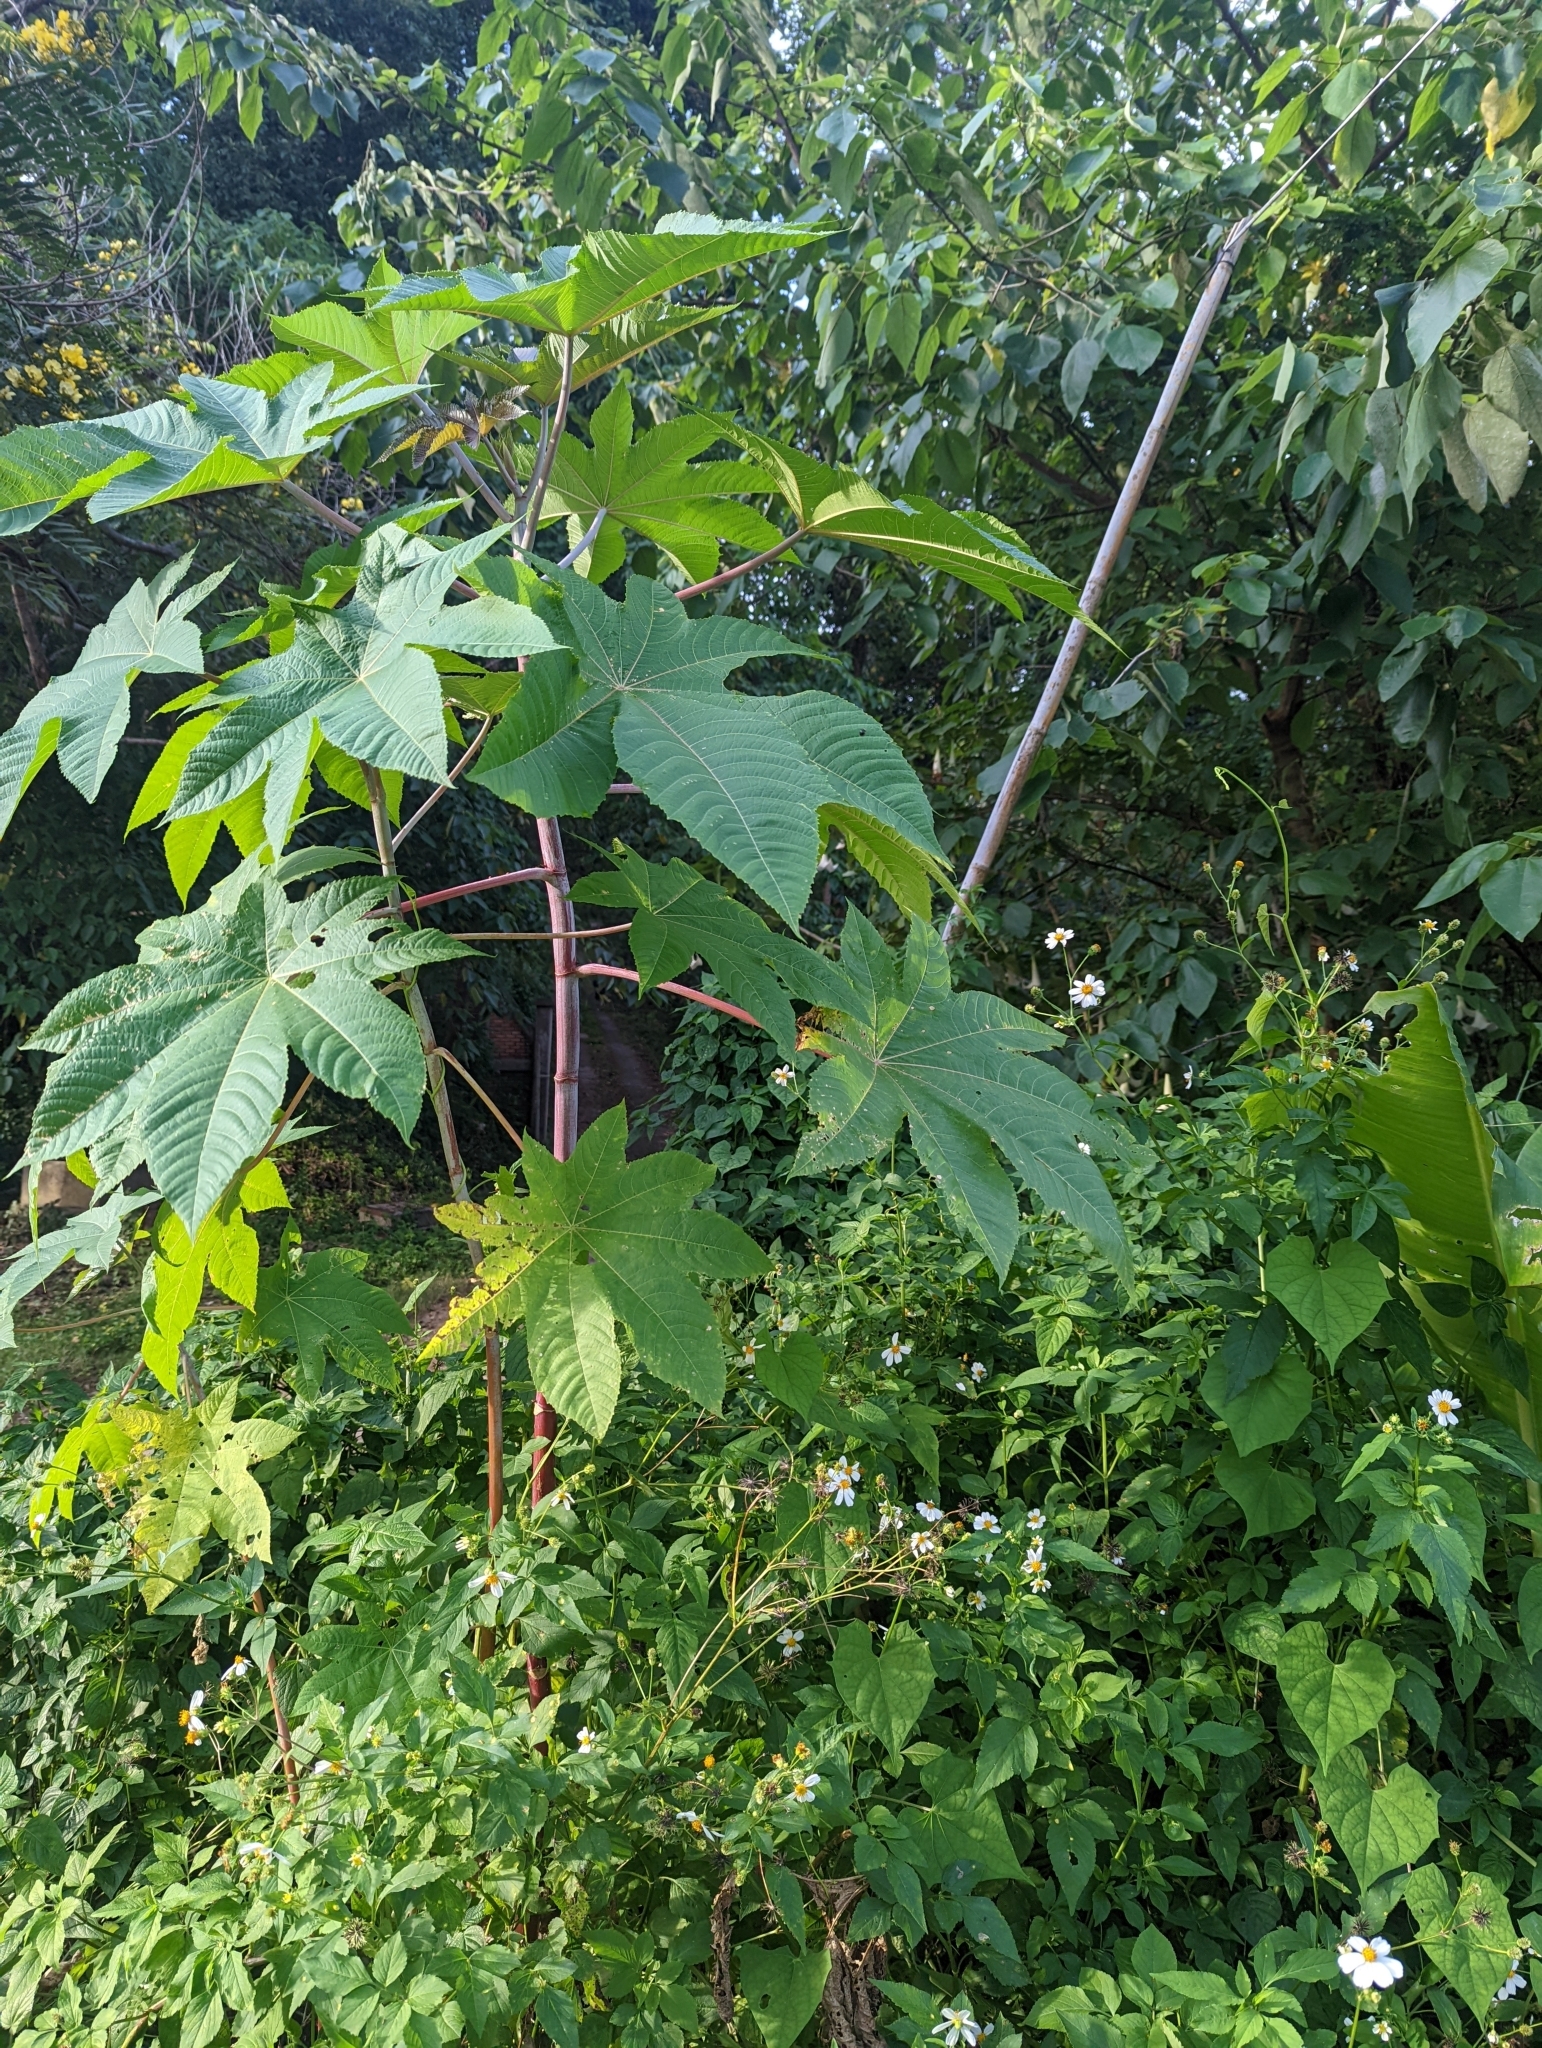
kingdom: Plantae
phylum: Tracheophyta
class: Magnoliopsida
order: Malpighiales
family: Euphorbiaceae
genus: Ricinus
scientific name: Ricinus communis
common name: Castor-oil-plant
